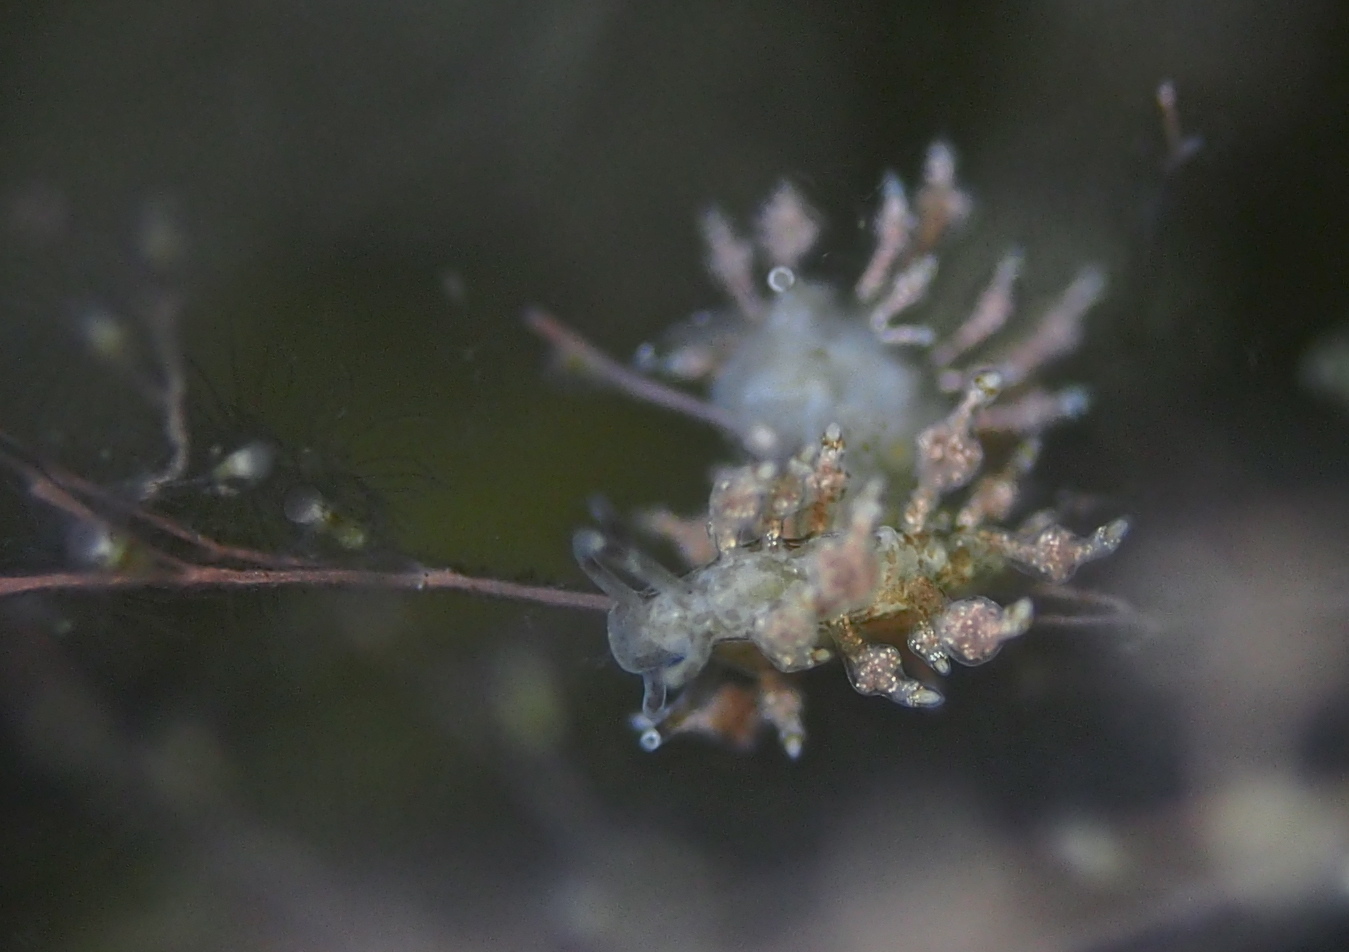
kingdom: Animalia
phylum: Mollusca
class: Gastropoda
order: Nudibranchia
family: Eubranchidae
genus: Eubranchus
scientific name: Eubranchus exiguus
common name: Balloon aeolis
